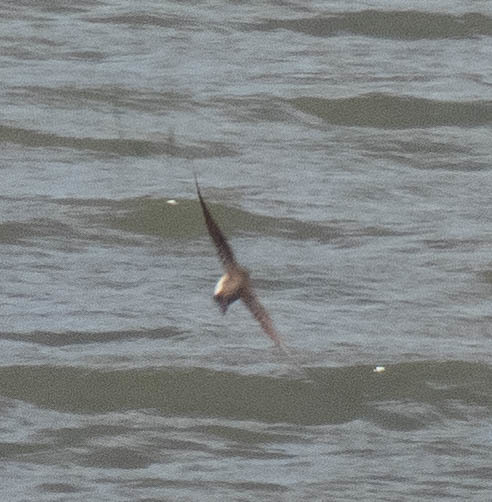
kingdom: Animalia
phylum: Chordata
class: Aves
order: Passeriformes
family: Hirundinidae
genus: Stelgidopteryx
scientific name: Stelgidopteryx serripennis
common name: Northern rough-winged swallow
